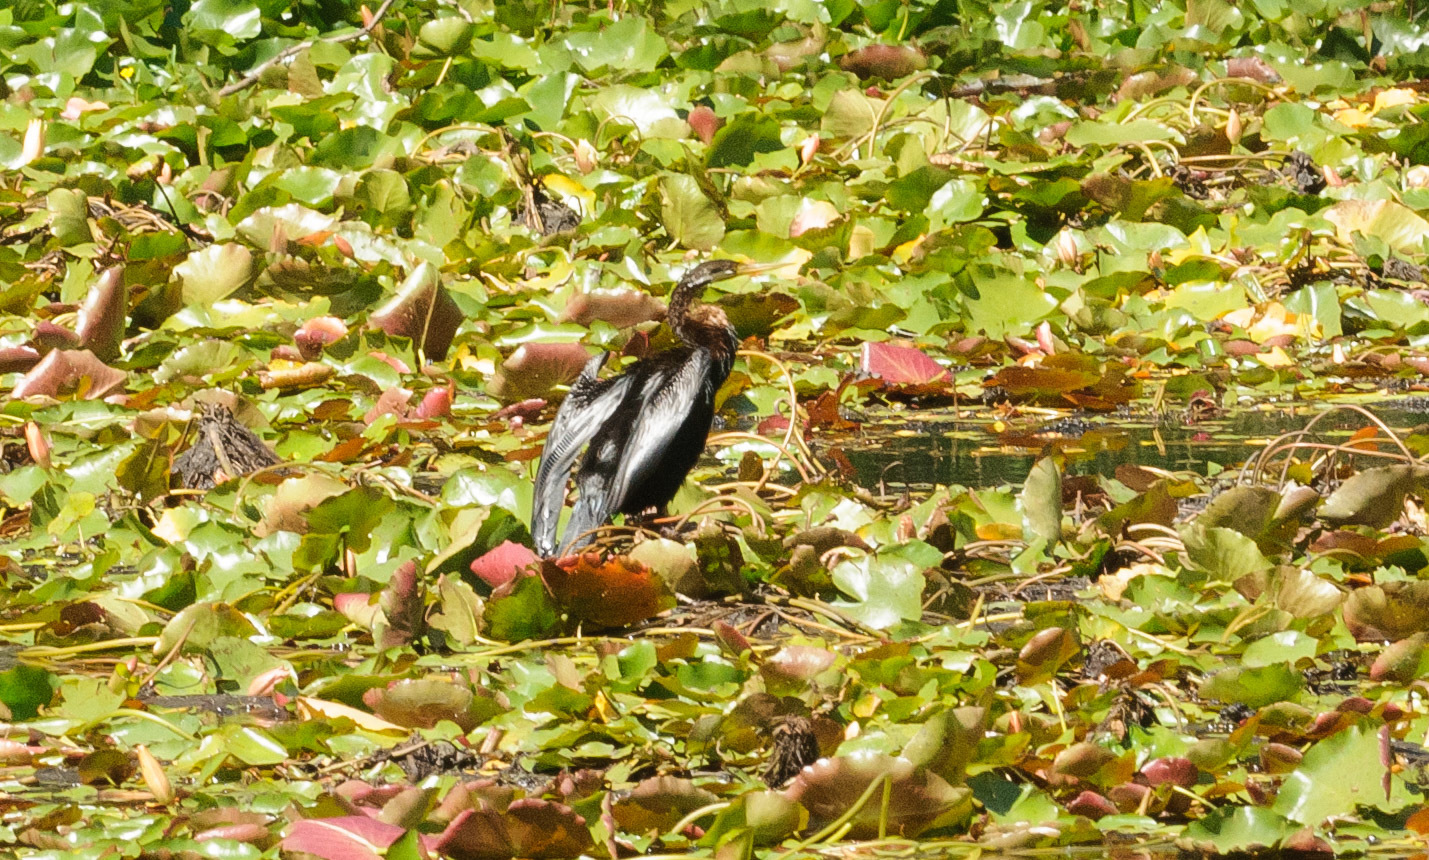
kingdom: Animalia
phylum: Chordata
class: Aves
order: Suliformes
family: Anhingidae
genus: Anhinga
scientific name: Anhinga novaehollandiae
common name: Australasian darter
